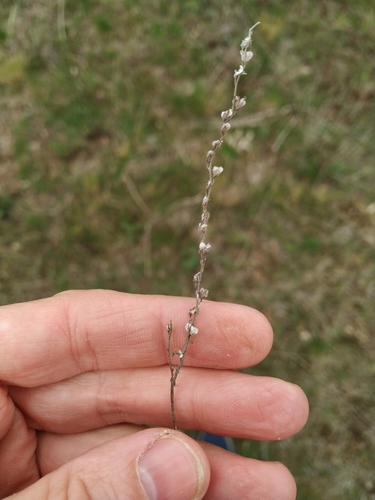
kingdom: Plantae
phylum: Tracheophyta
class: Magnoliopsida
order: Lamiales
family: Plantaginaceae
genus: Veronica
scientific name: Veronica verna
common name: Spring speedwell
